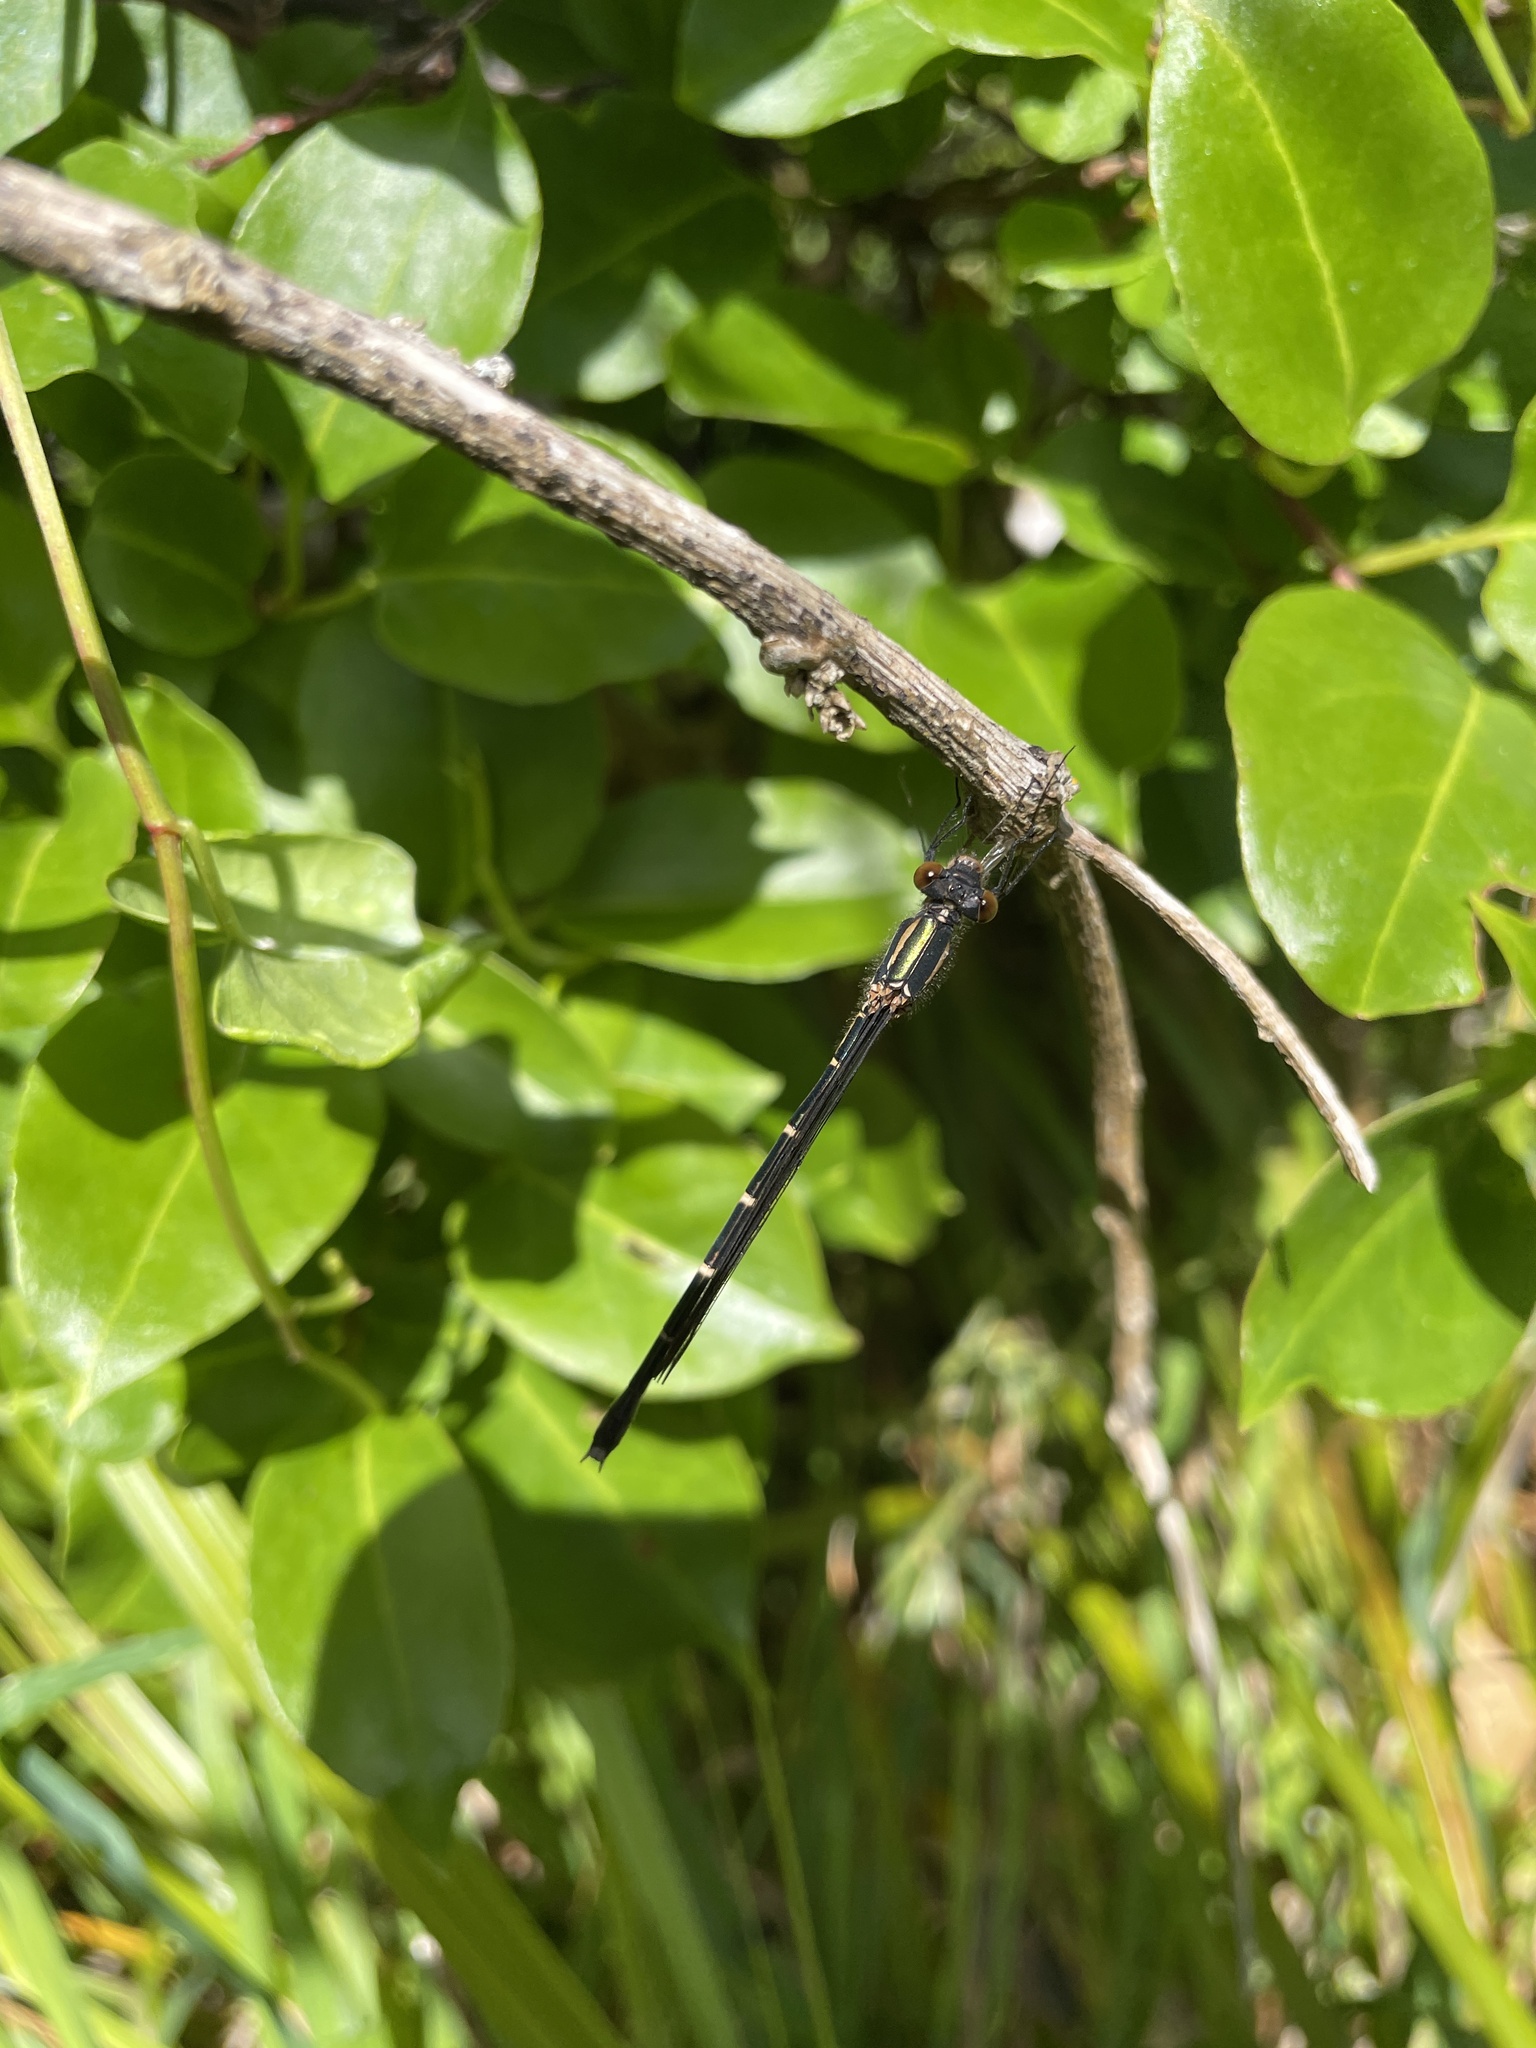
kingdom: Animalia
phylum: Arthropoda
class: Insecta
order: Odonata
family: Lestidae
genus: Austrolestes
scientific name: Austrolestes colensonis
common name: Blue damselfly
